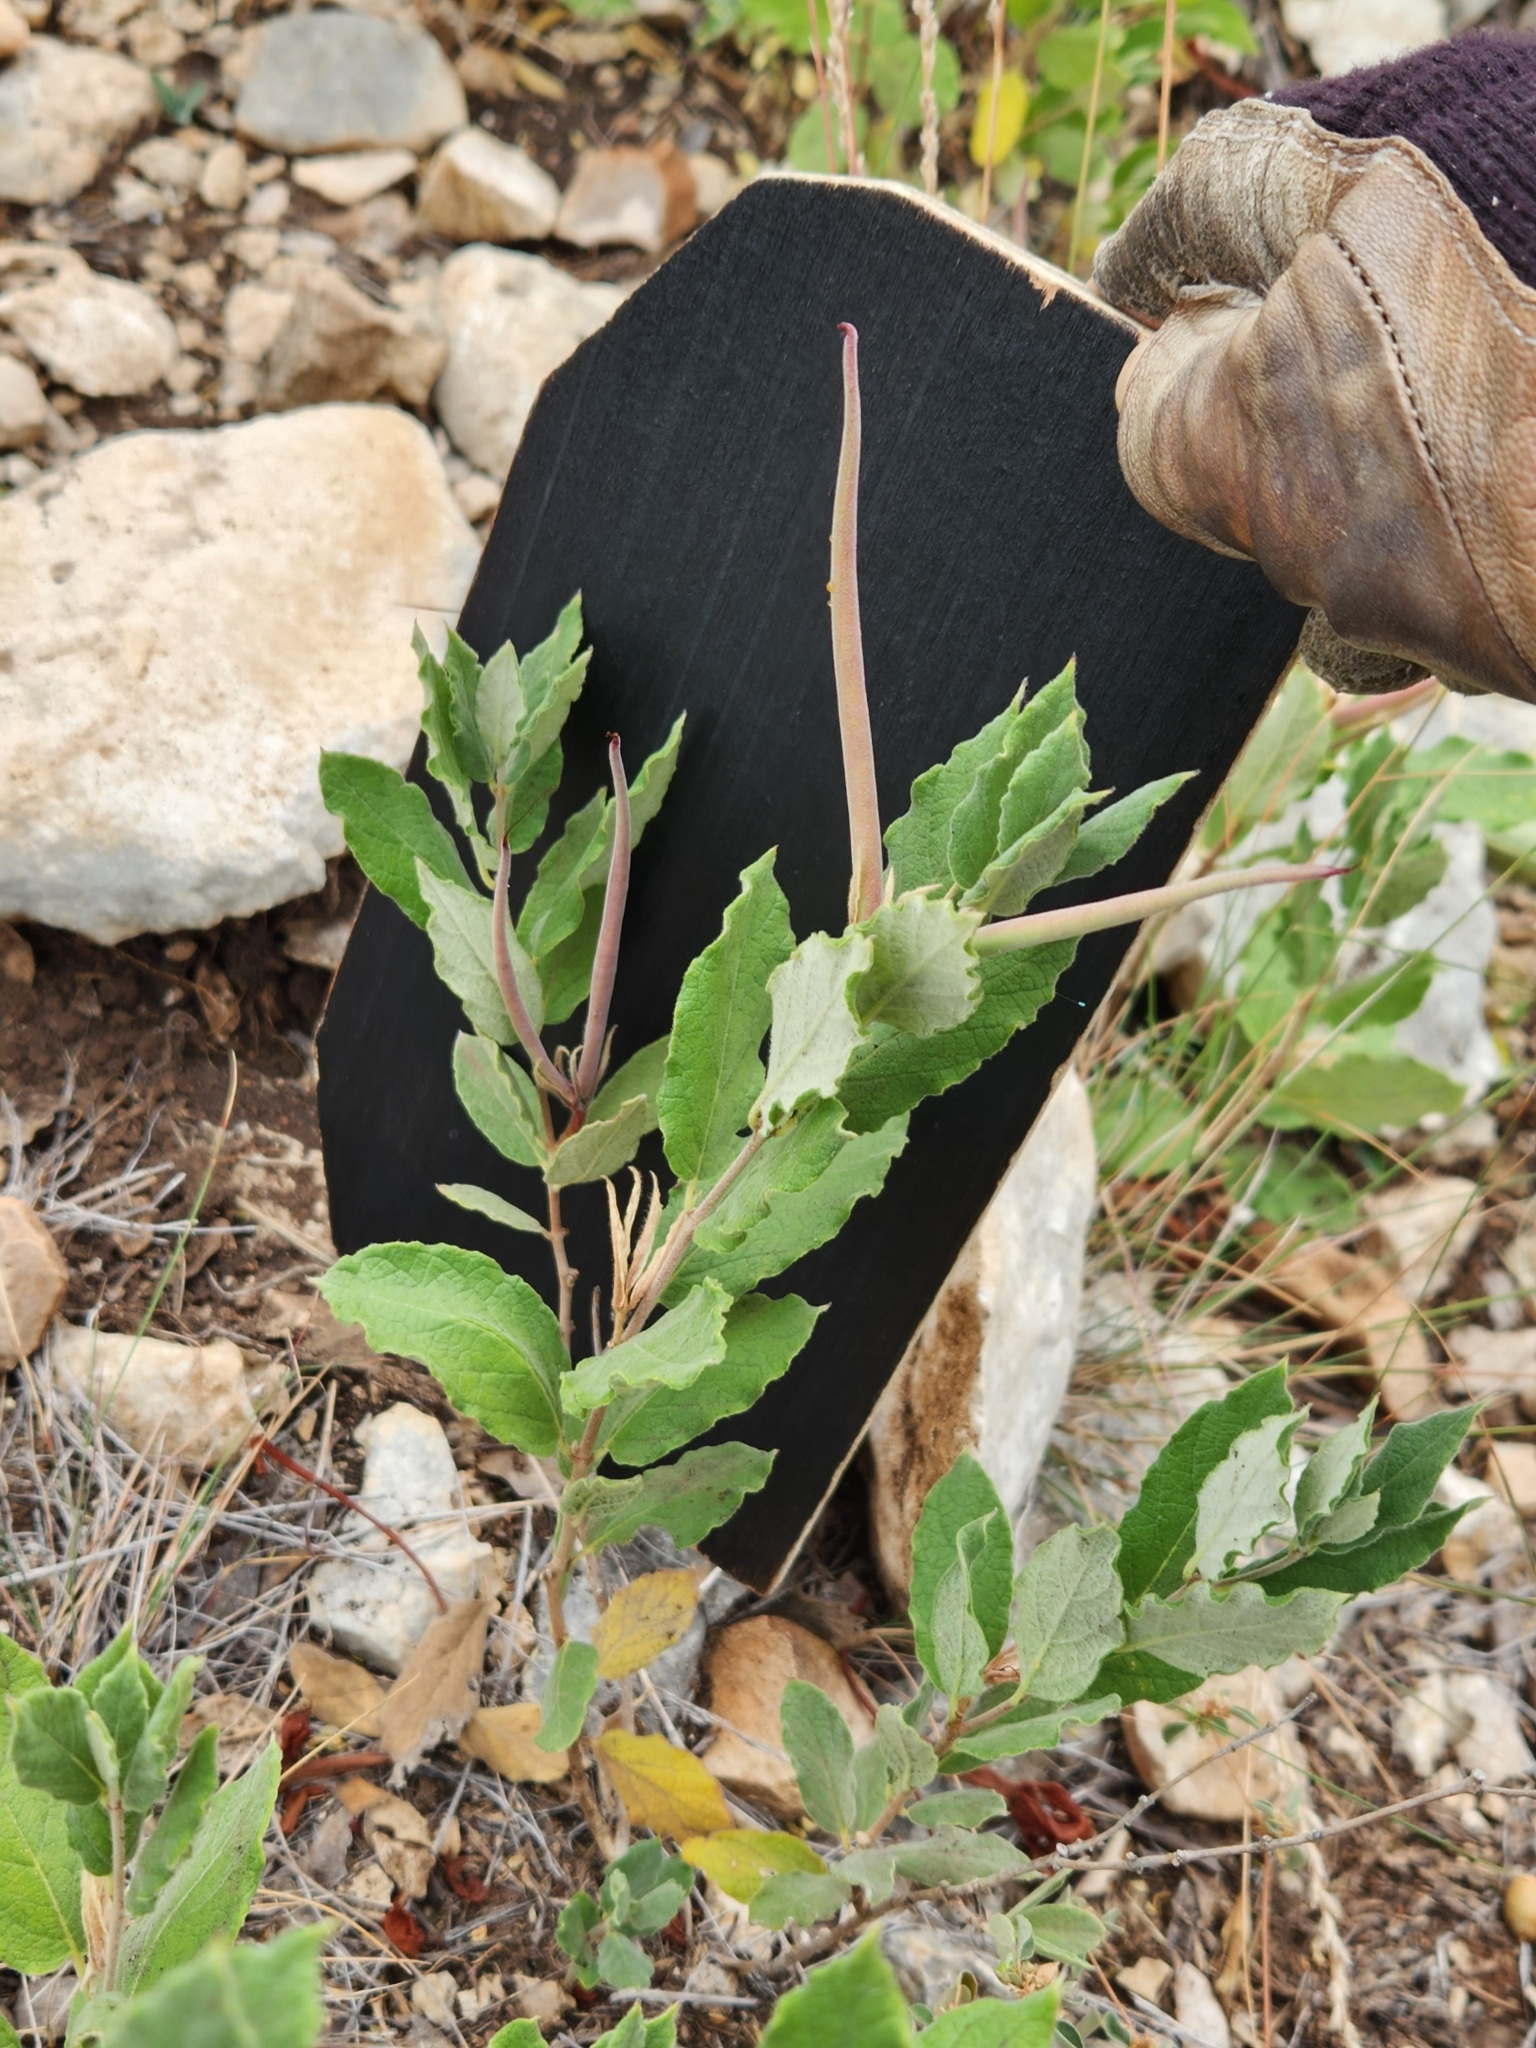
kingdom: Plantae
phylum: Tracheophyta
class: Magnoliopsida
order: Gentianales
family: Apocynaceae
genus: Mandevilla
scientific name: Mandevilla macrosiphon
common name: Plateau rocktrumpet
